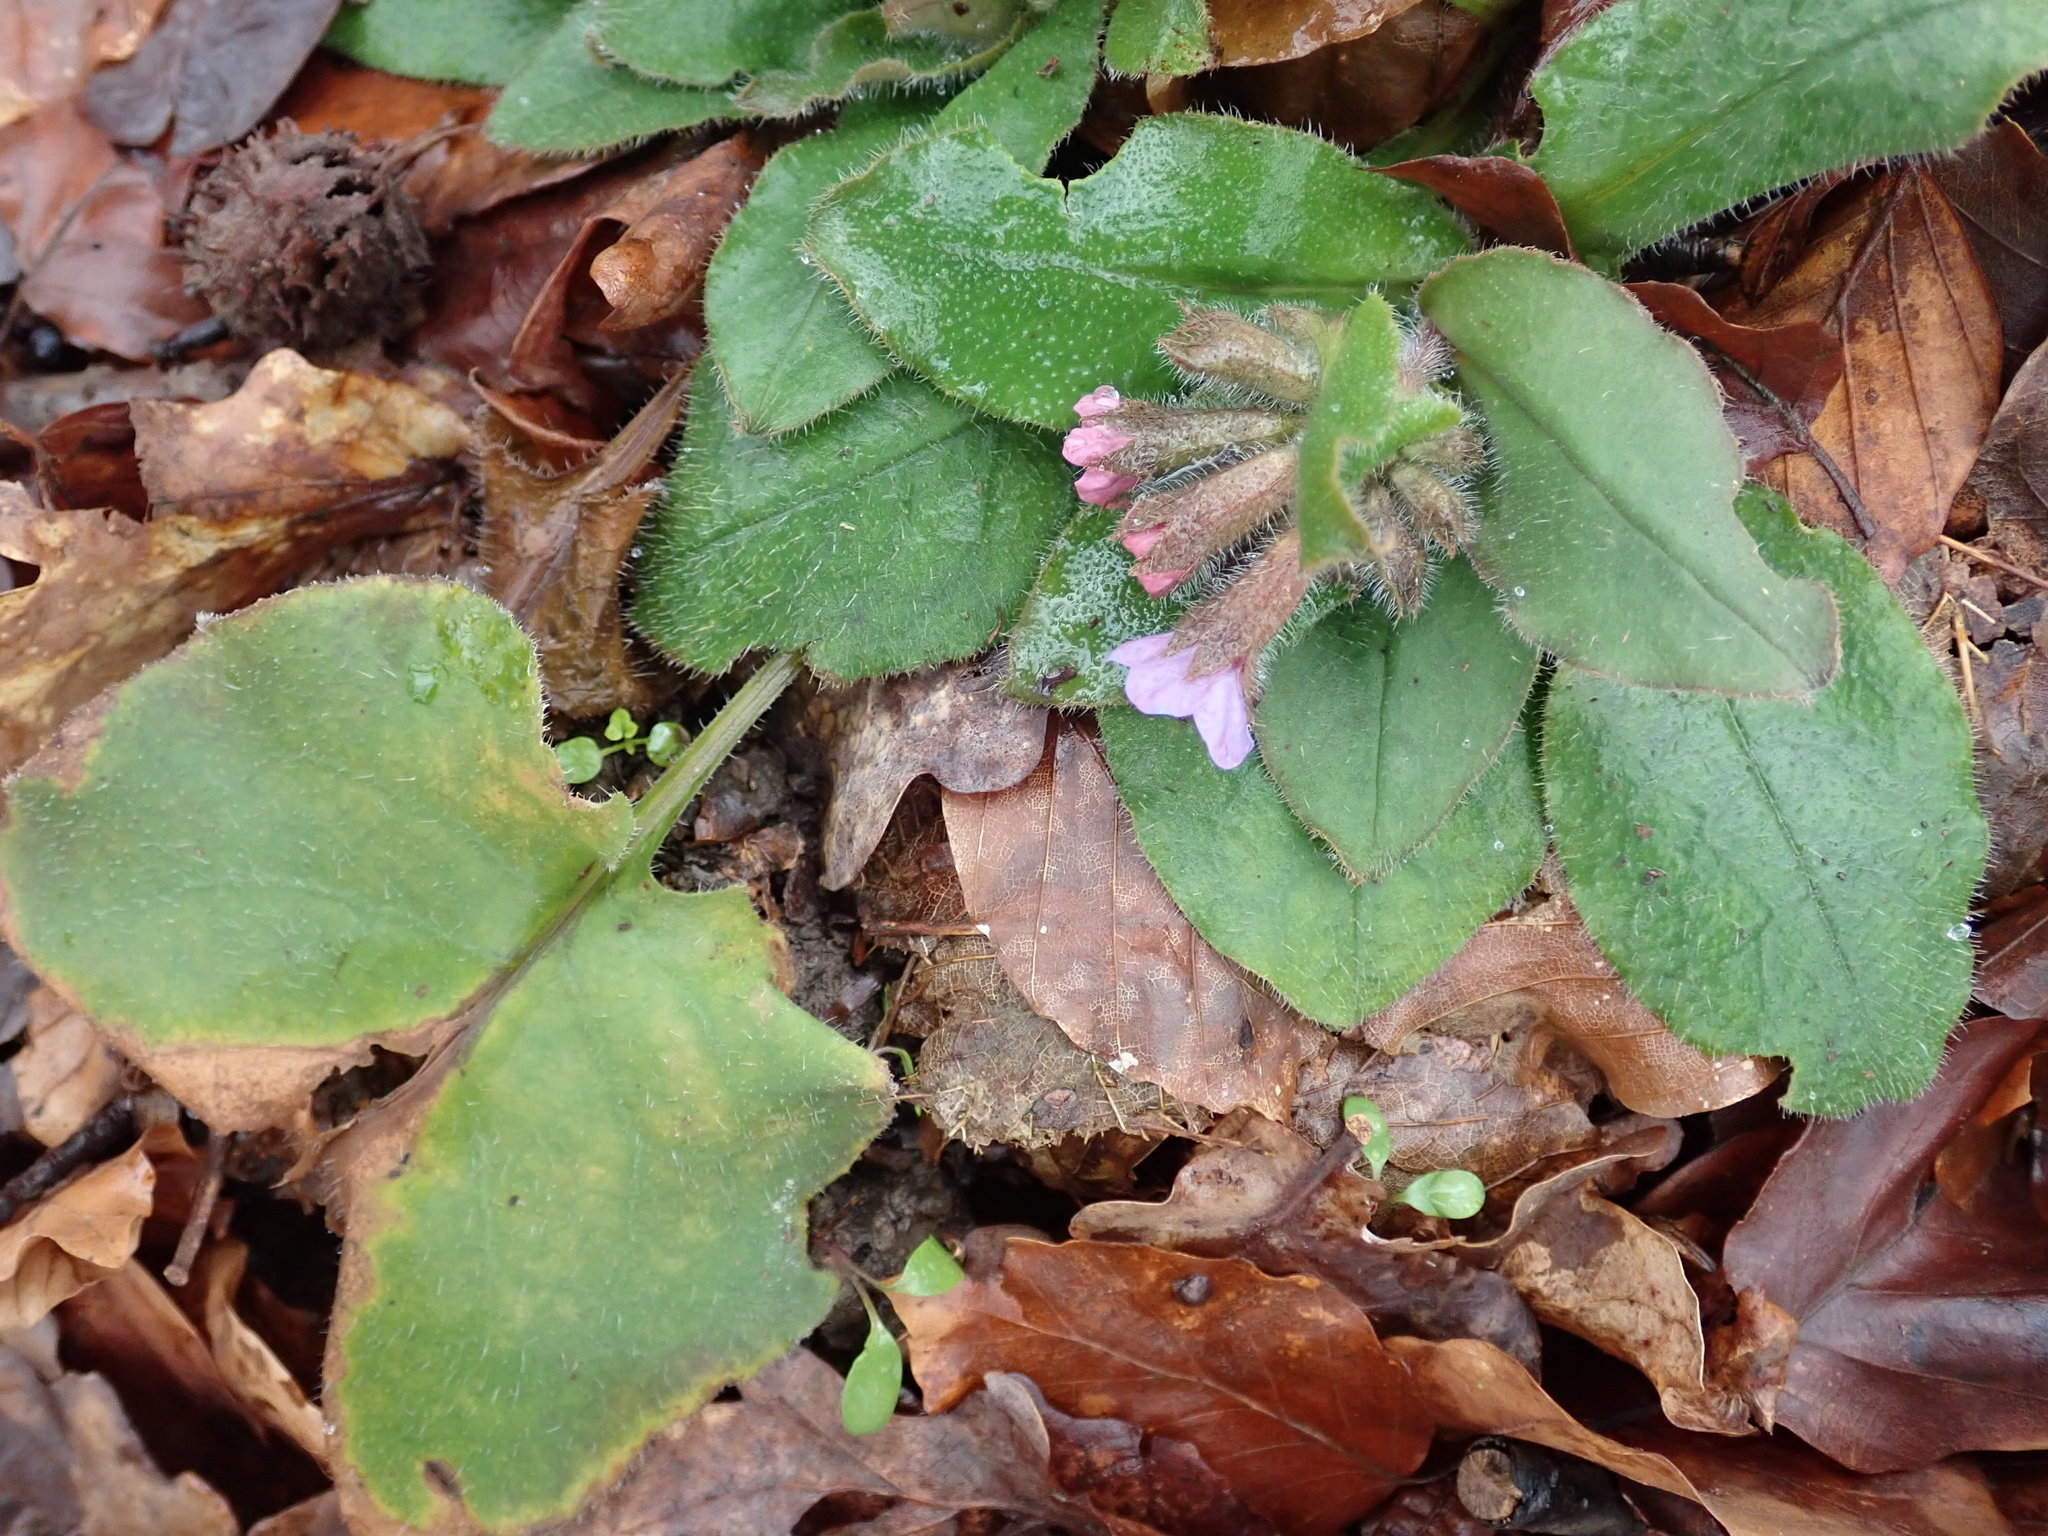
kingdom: Plantae
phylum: Tracheophyta
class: Magnoliopsida
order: Boraginales
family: Boraginaceae
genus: Pulmonaria
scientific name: Pulmonaria officinalis
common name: Lungwort
